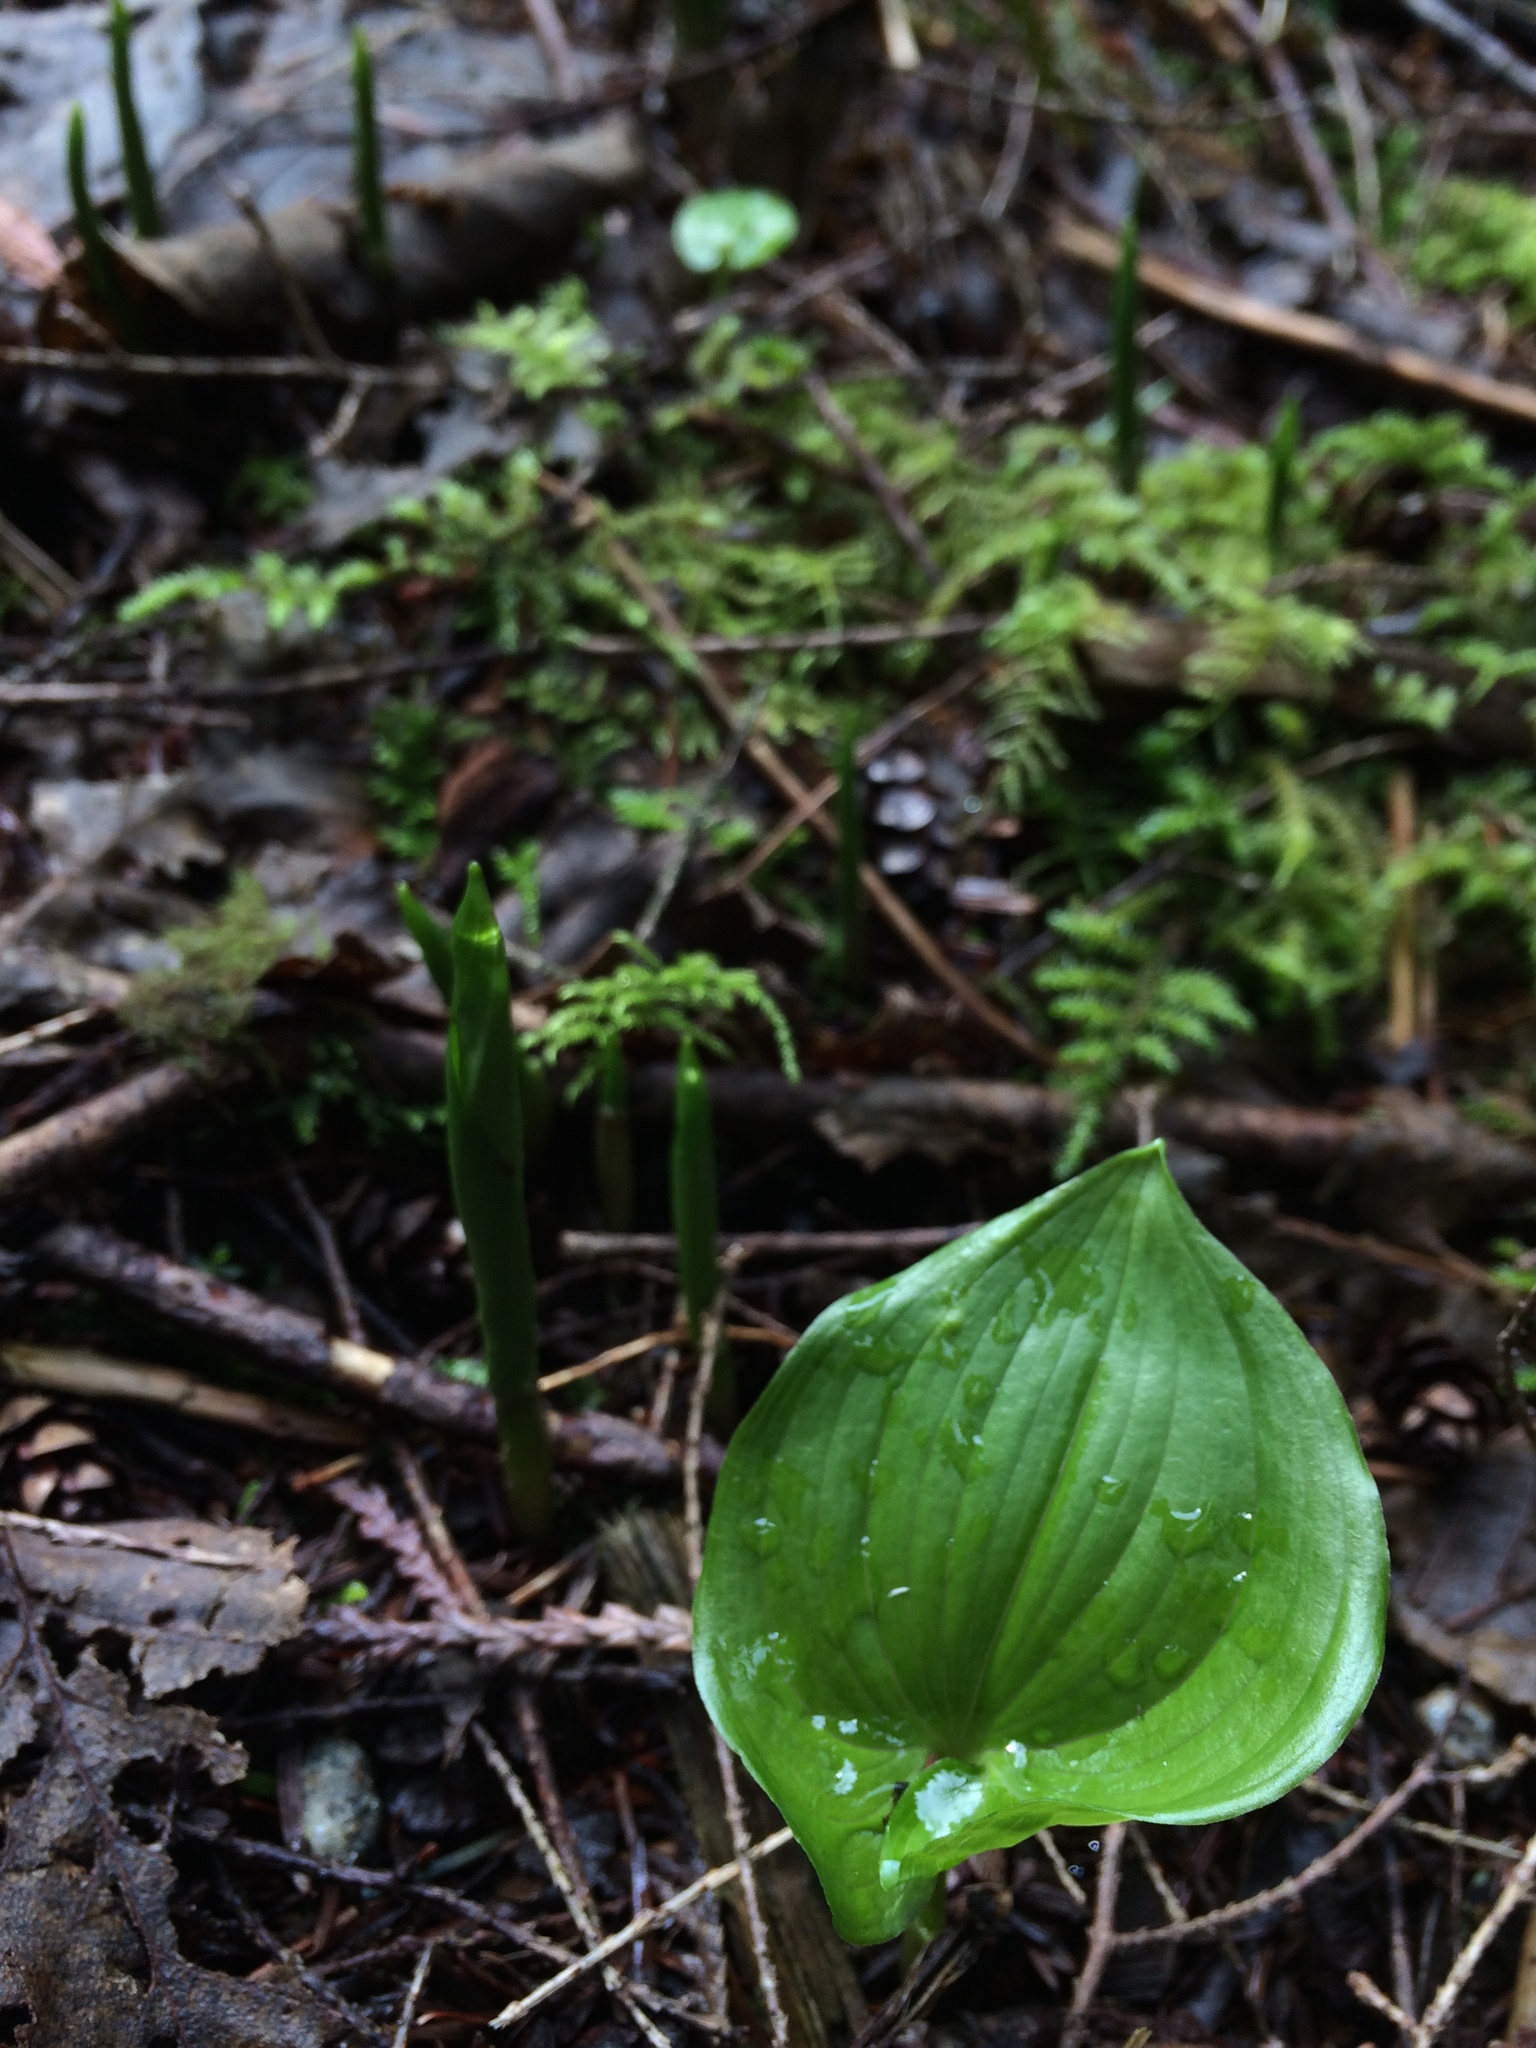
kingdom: Plantae
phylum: Tracheophyta
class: Liliopsida
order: Asparagales
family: Asparagaceae
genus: Maianthemum
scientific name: Maianthemum dilatatum
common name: False lily-of-the-valley
